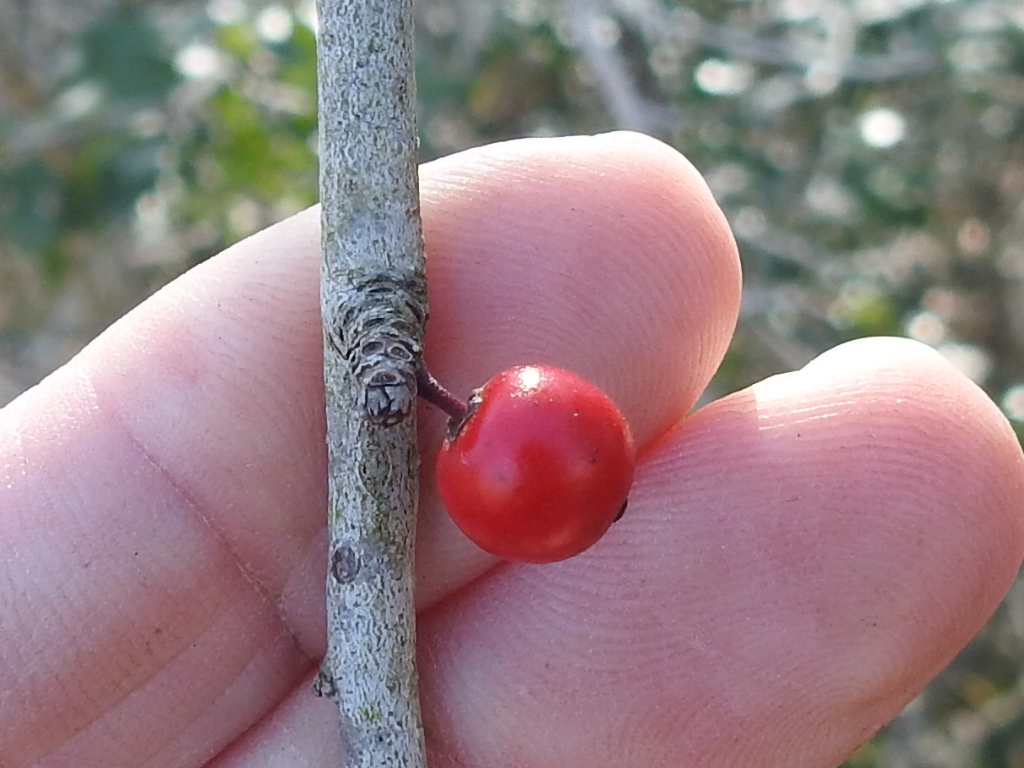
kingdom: Plantae
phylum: Tracheophyta
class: Magnoliopsida
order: Aquifoliales
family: Aquifoliaceae
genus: Ilex
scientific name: Ilex decidua
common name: Possum-haw
